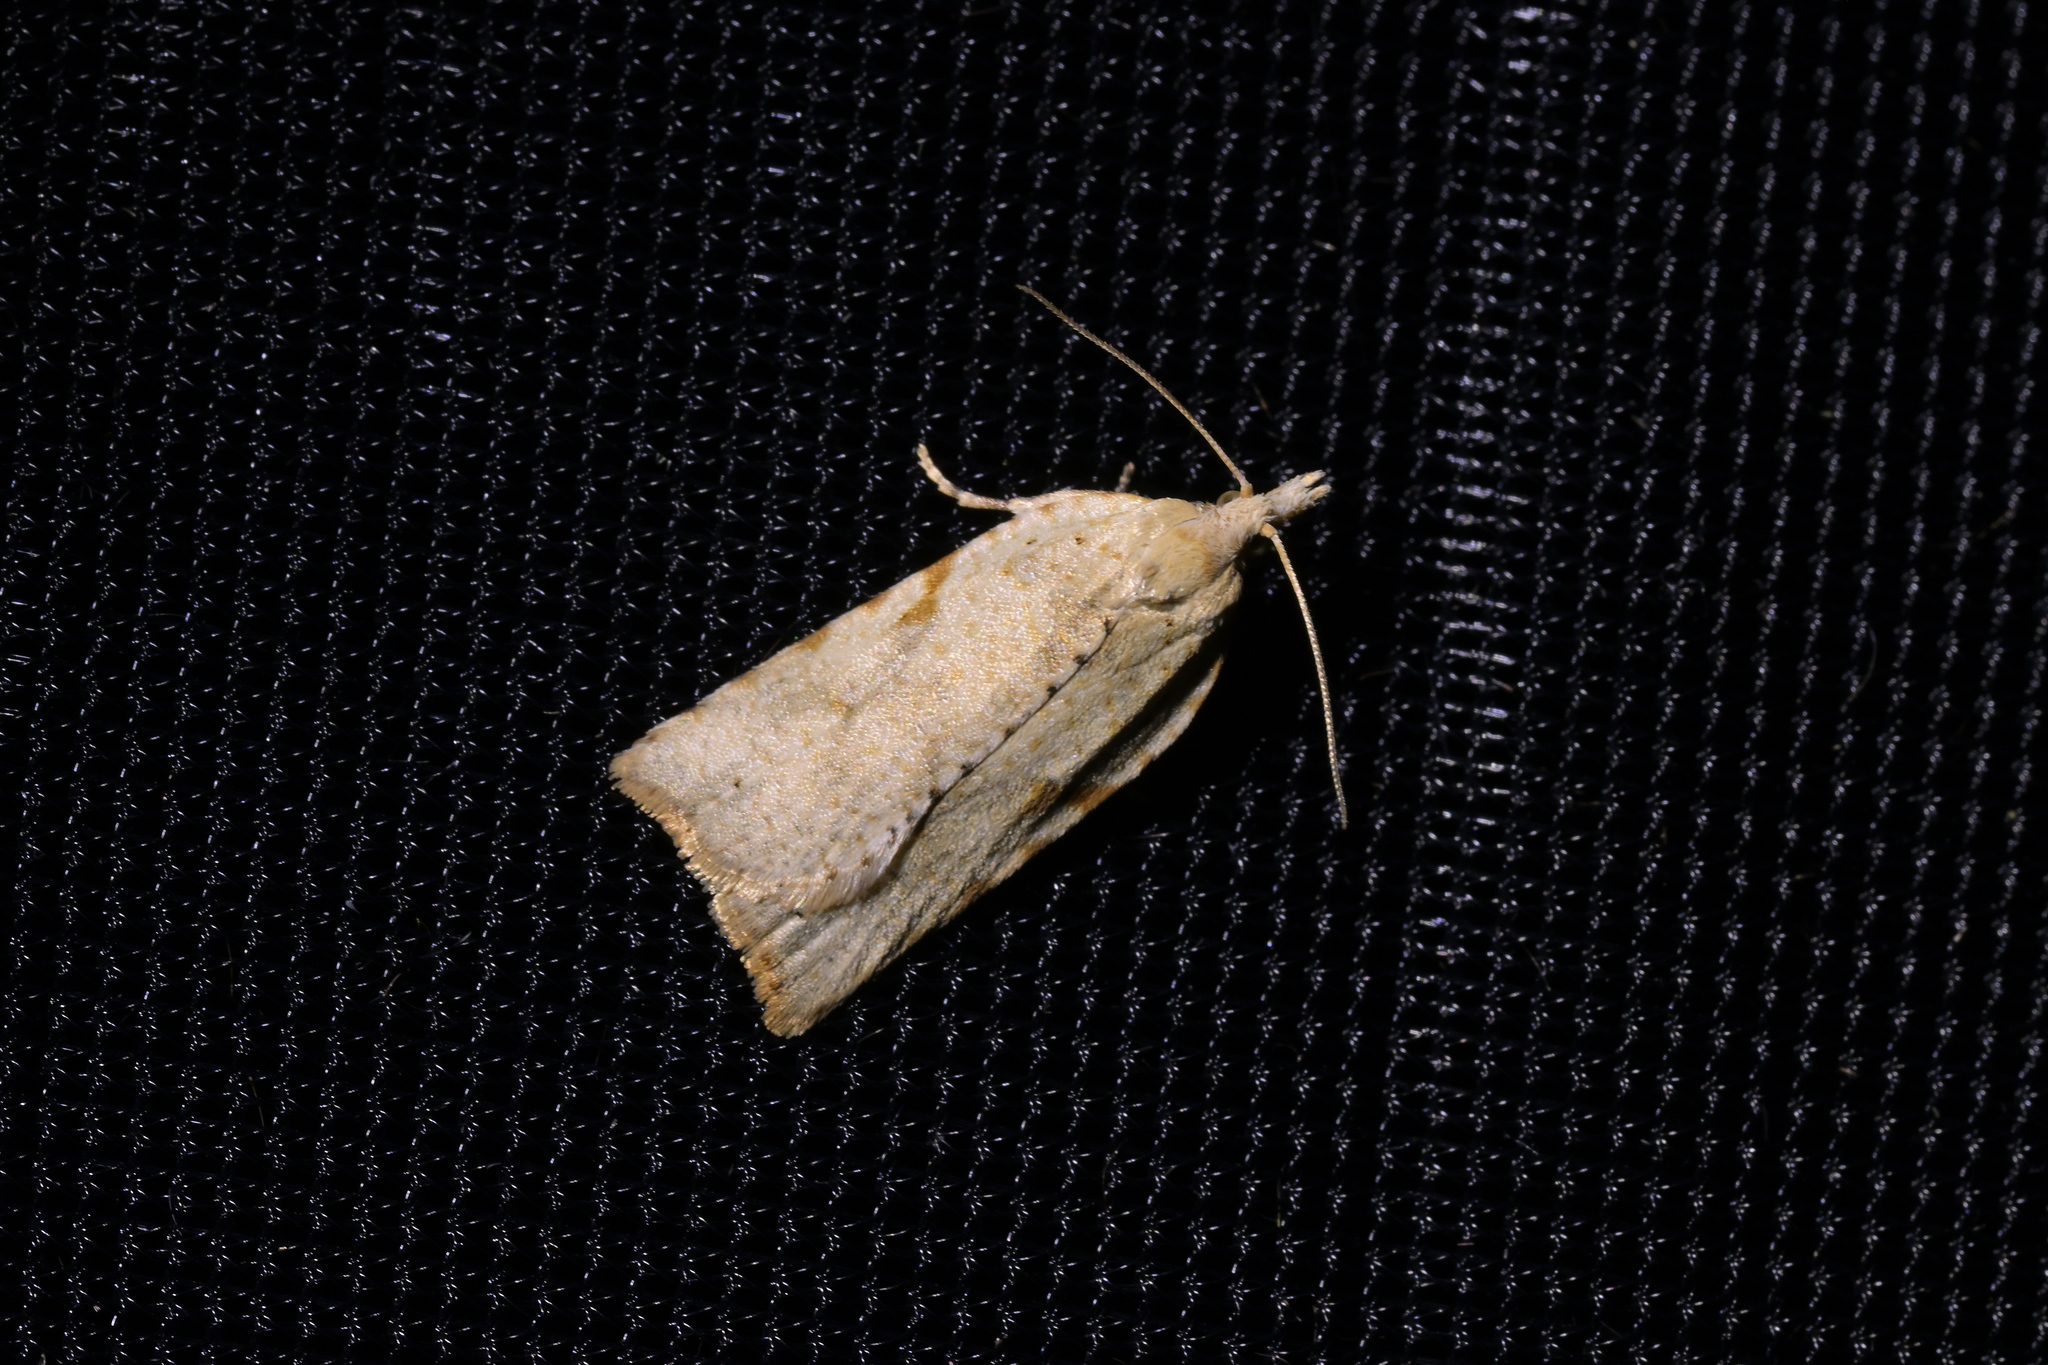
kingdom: Animalia
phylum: Arthropoda
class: Insecta
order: Lepidoptera
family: Tortricidae
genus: Leucotenes
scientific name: Leucotenes coprosmae
